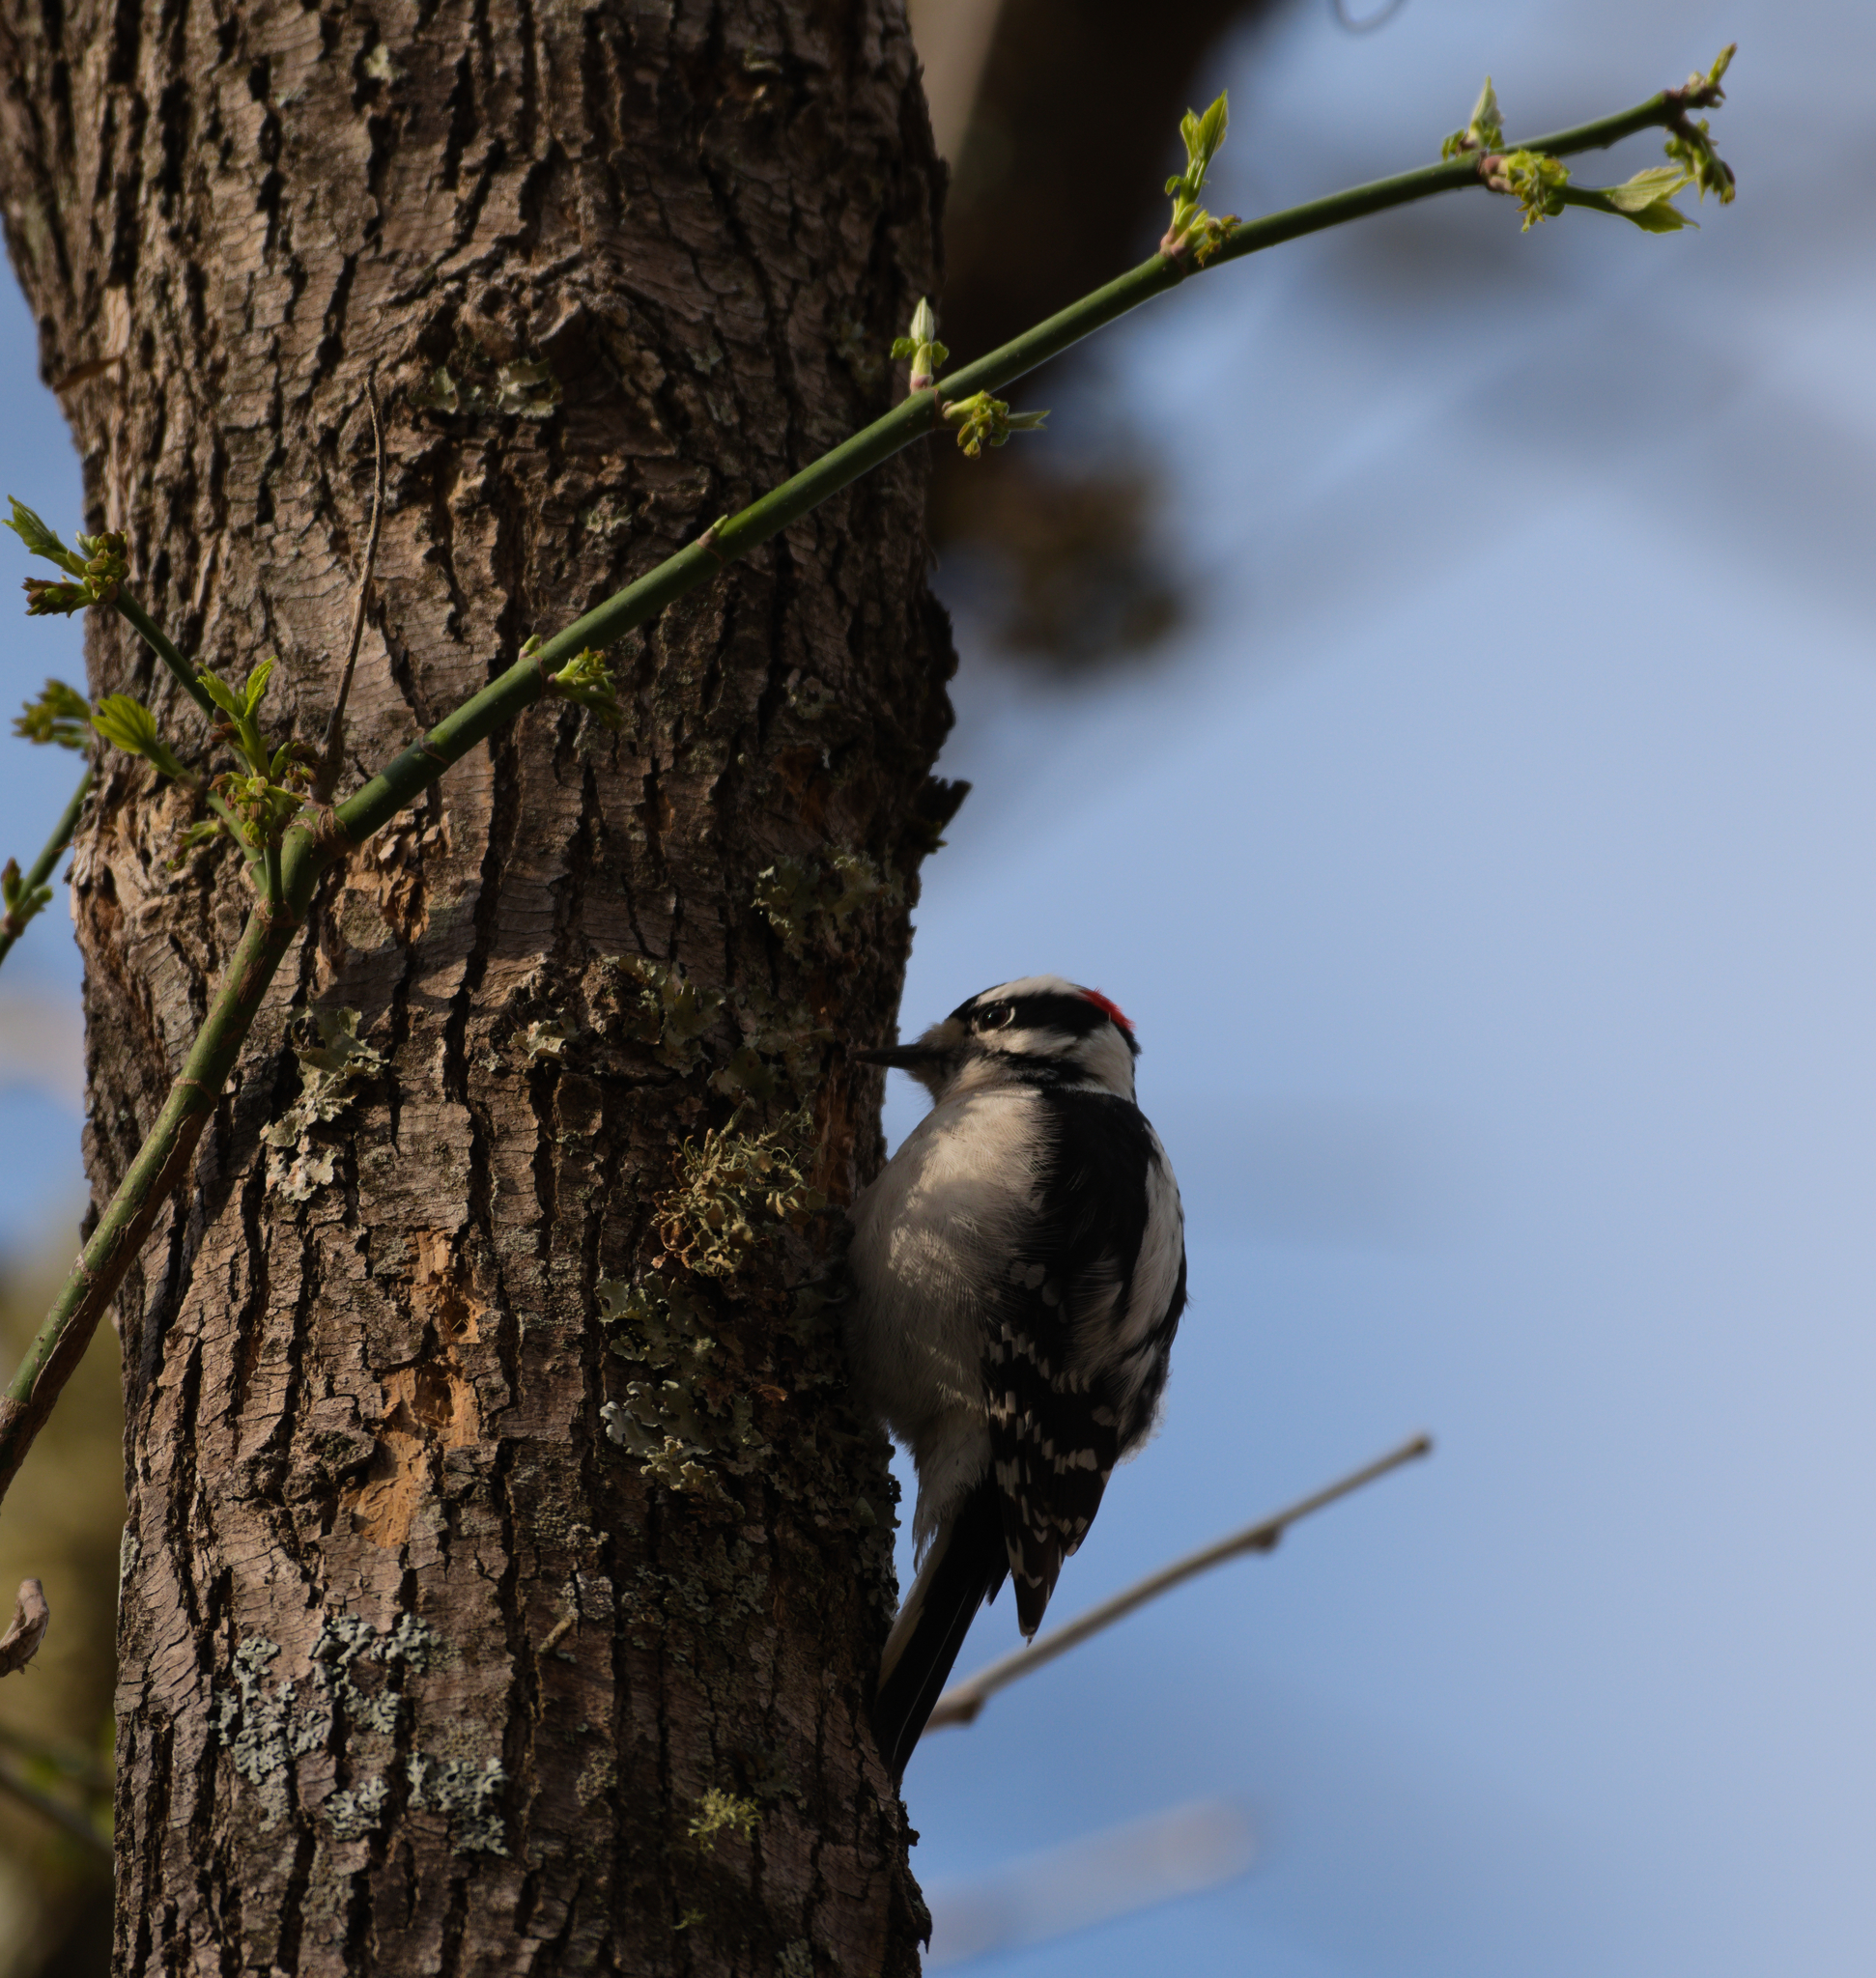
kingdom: Animalia
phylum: Chordata
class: Aves
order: Piciformes
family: Picidae
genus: Dryobates
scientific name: Dryobates pubescens
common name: Downy woodpecker
